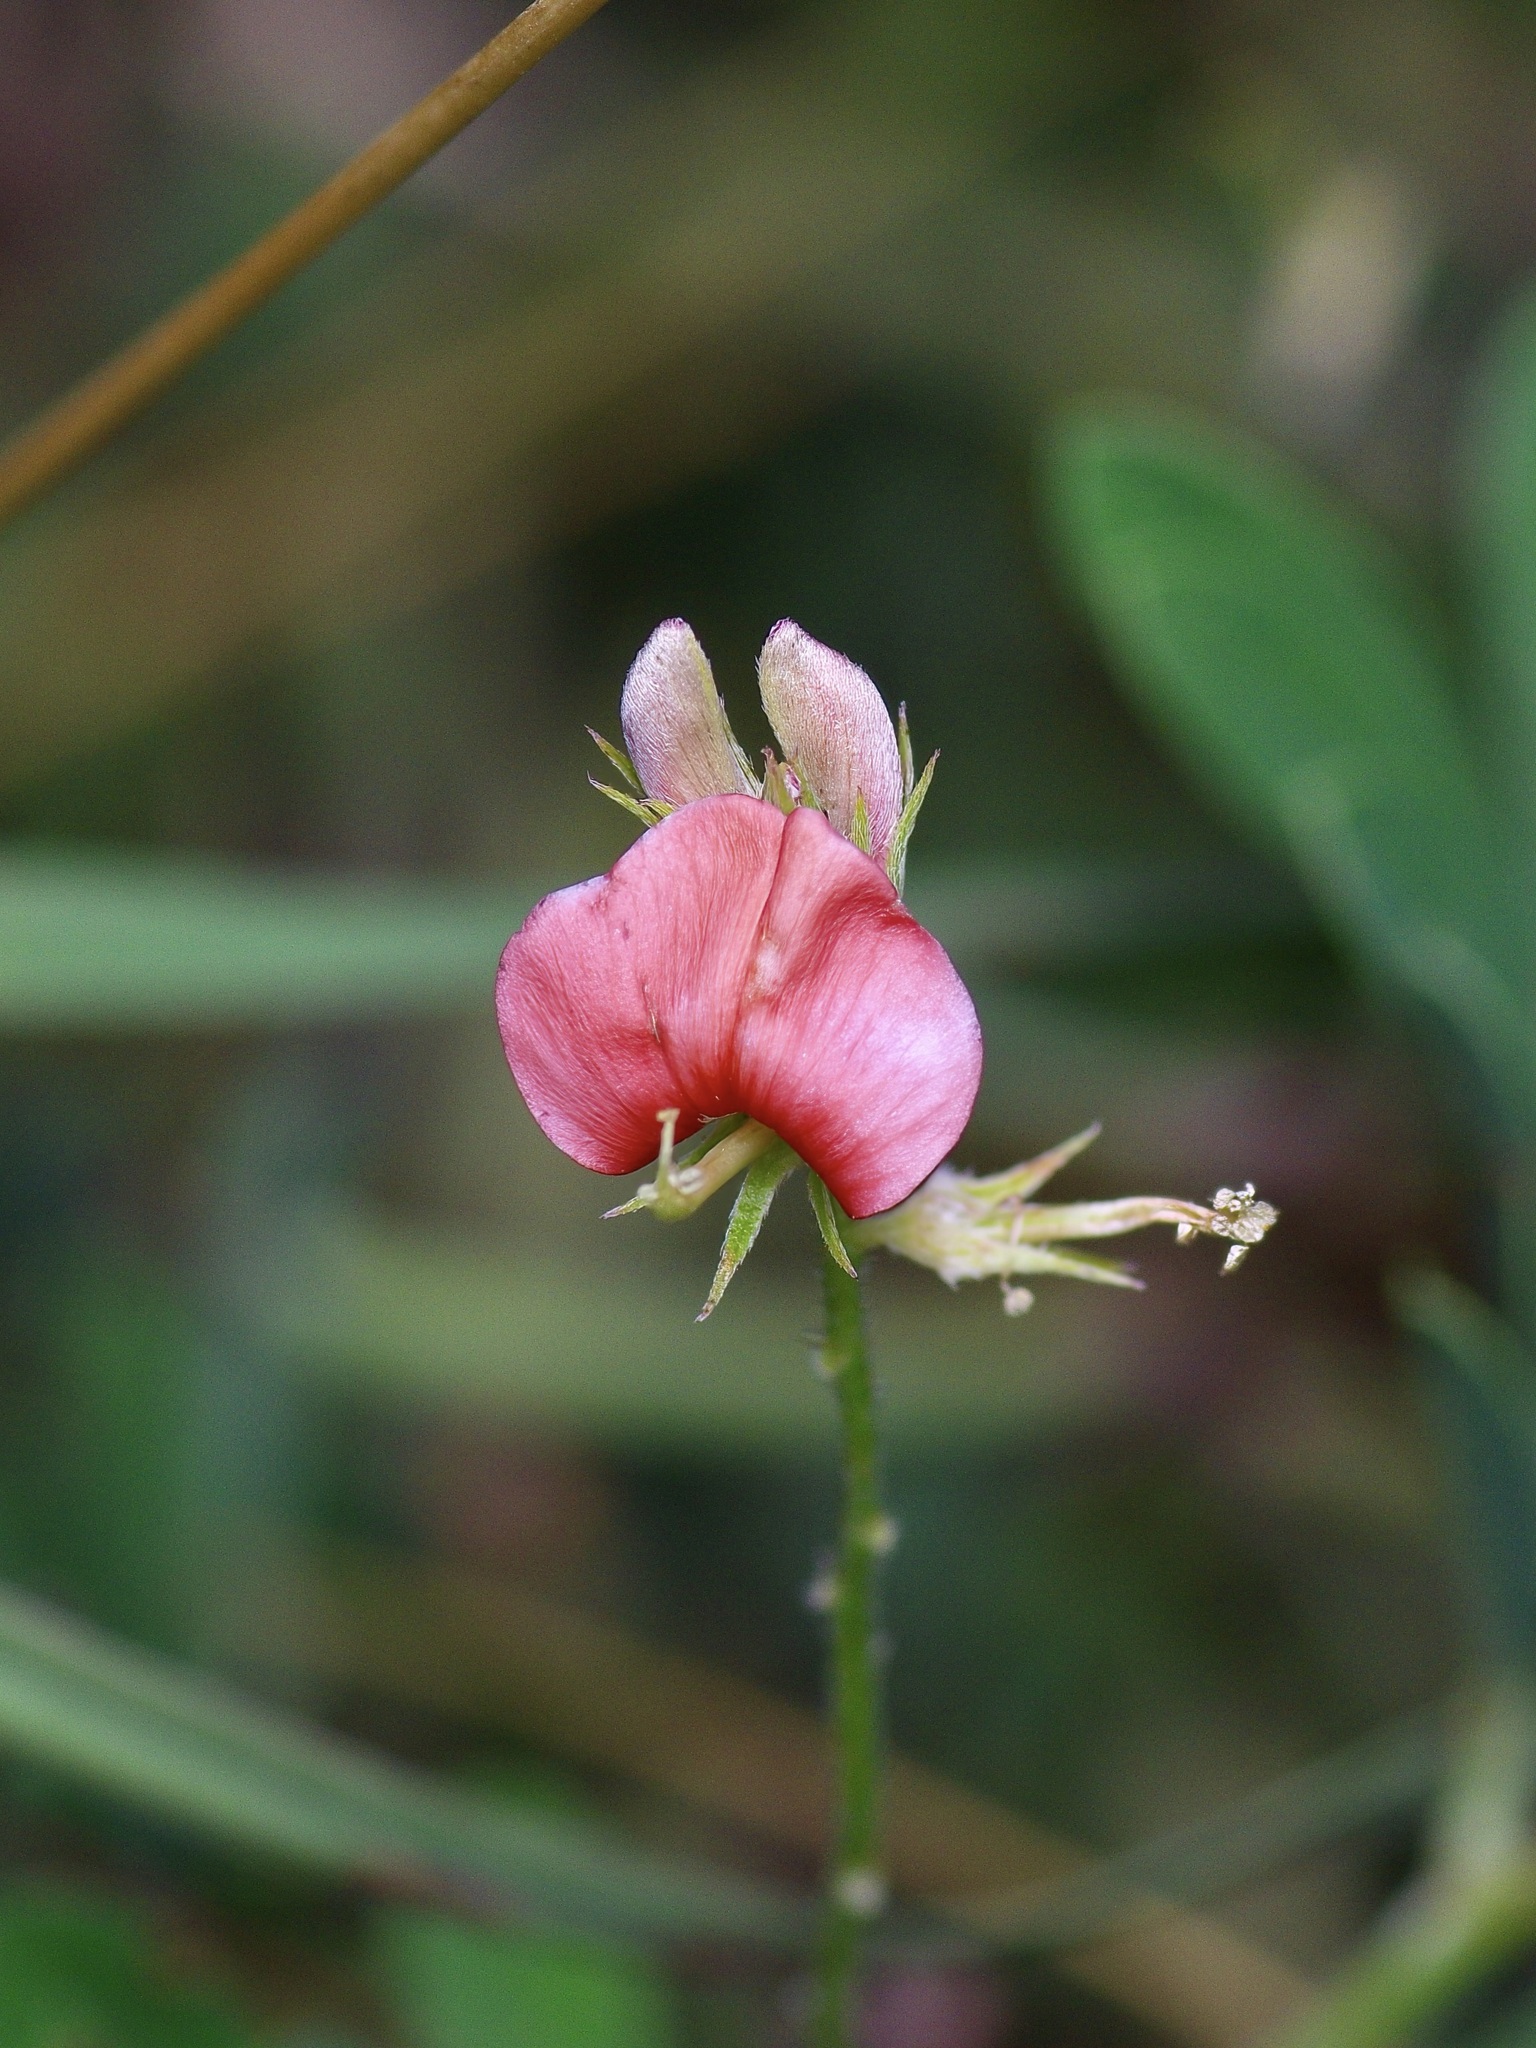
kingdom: Plantae
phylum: Tracheophyta
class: Magnoliopsida
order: Fabales
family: Fabaceae
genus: Indigofera
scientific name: Indigofera miniata
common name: Coast indigo
